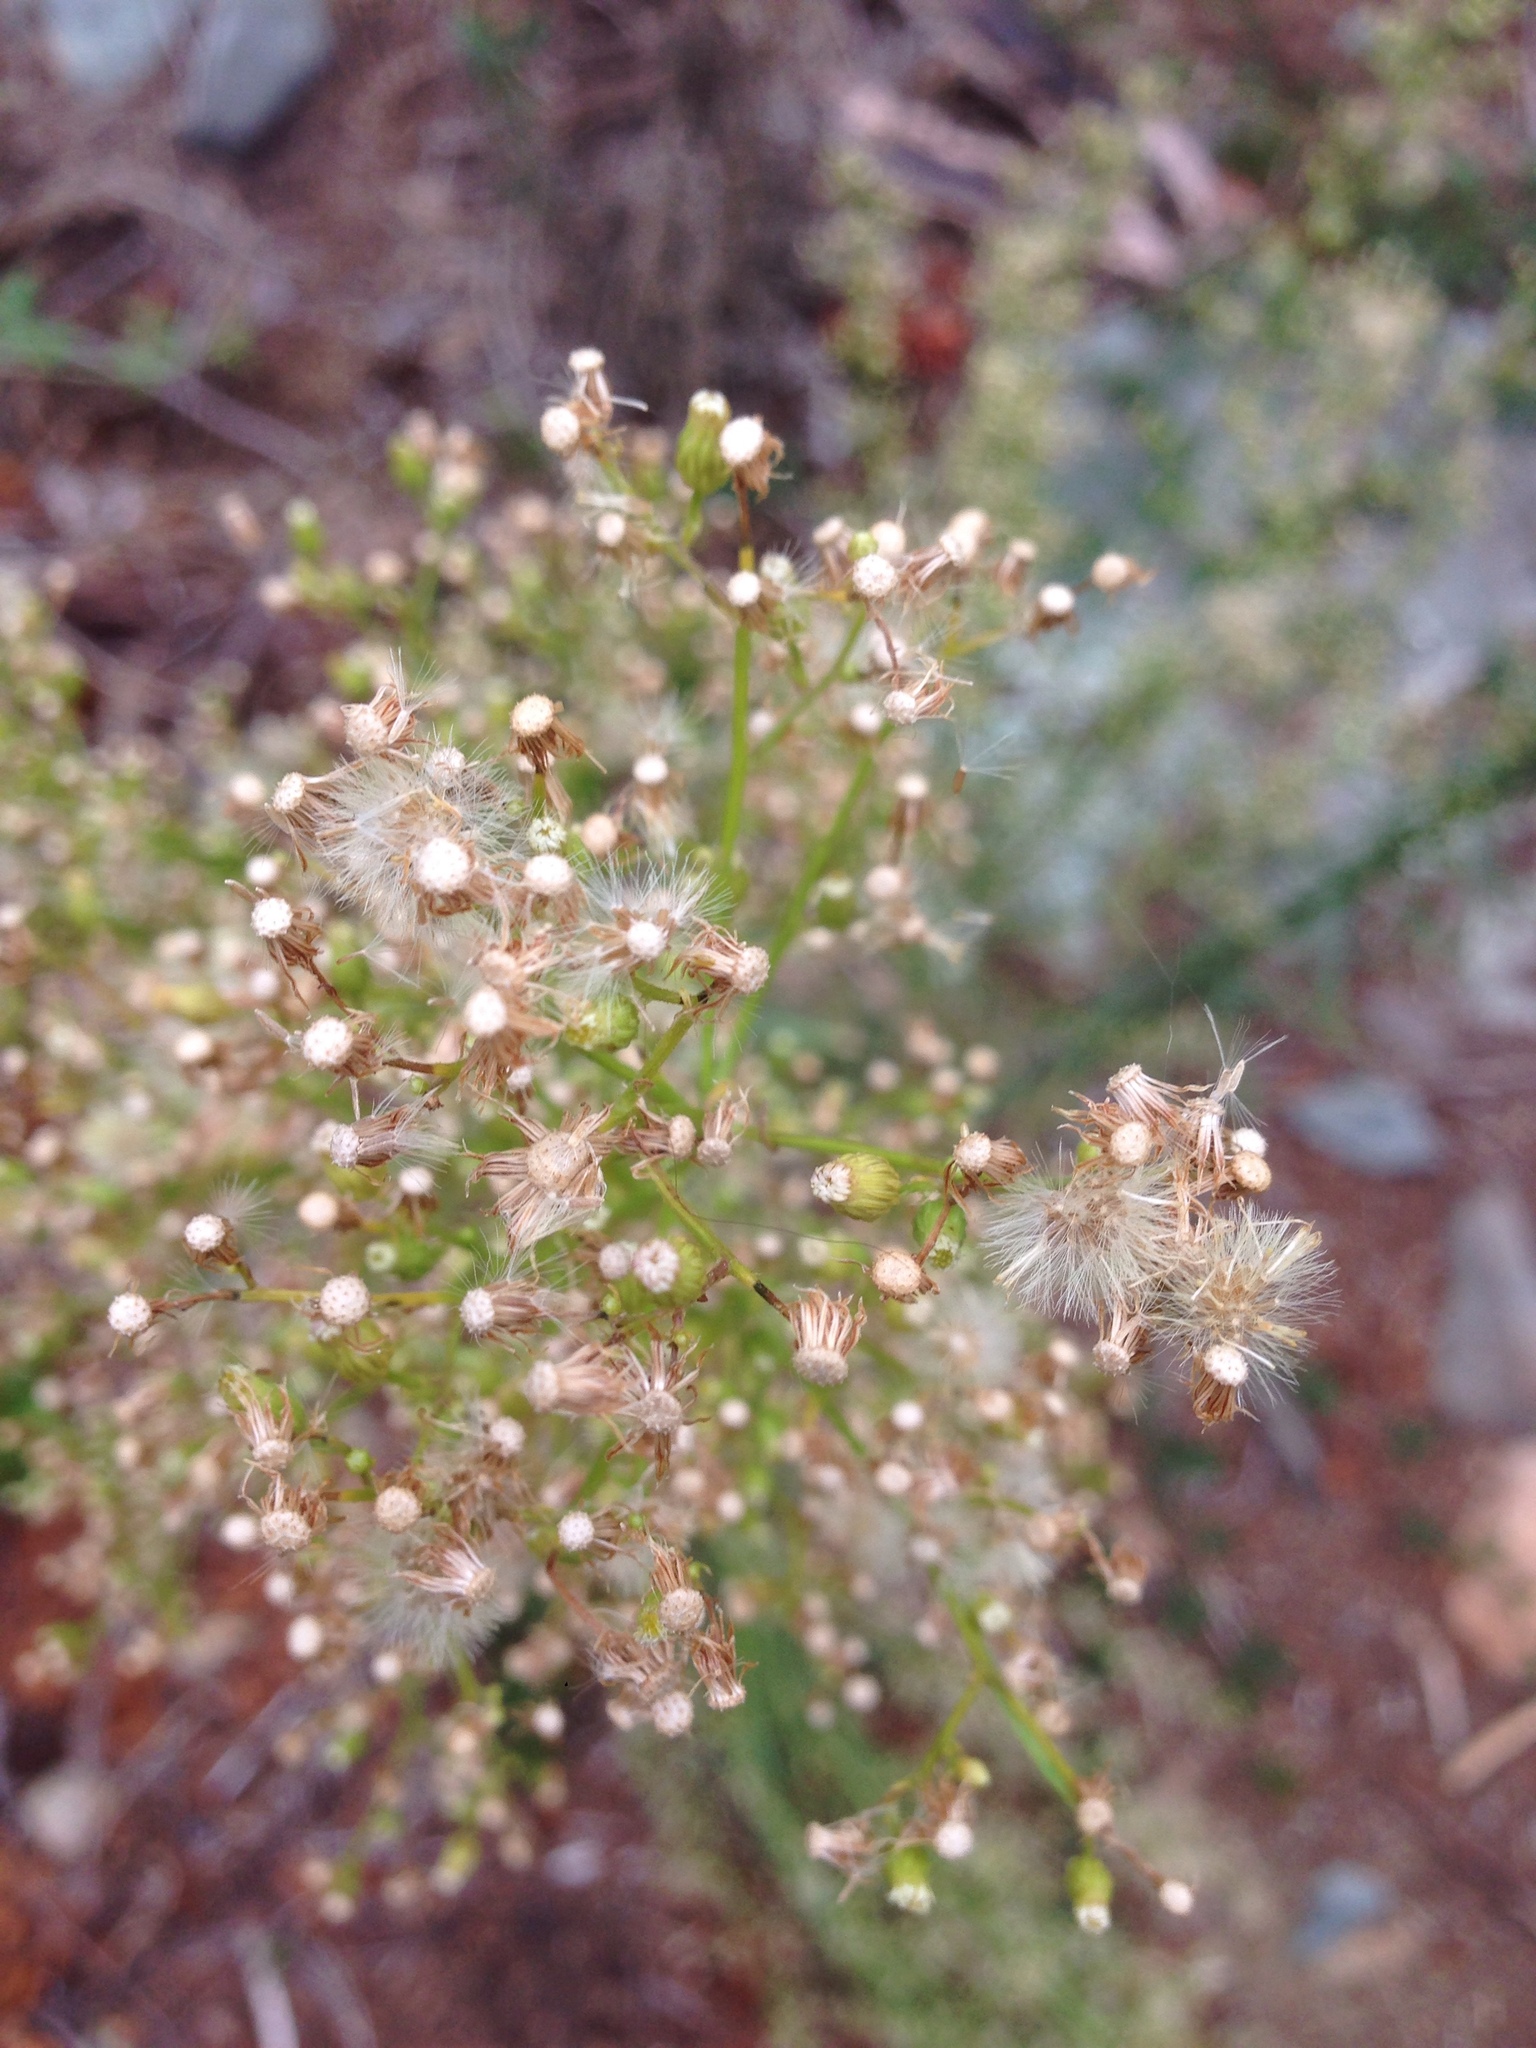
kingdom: Plantae
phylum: Tracheophyta
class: Magnoliopsida
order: Asterales
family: Asteraceae
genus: Erigeron
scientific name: Erigeron canadensis
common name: Canadian fleabane
